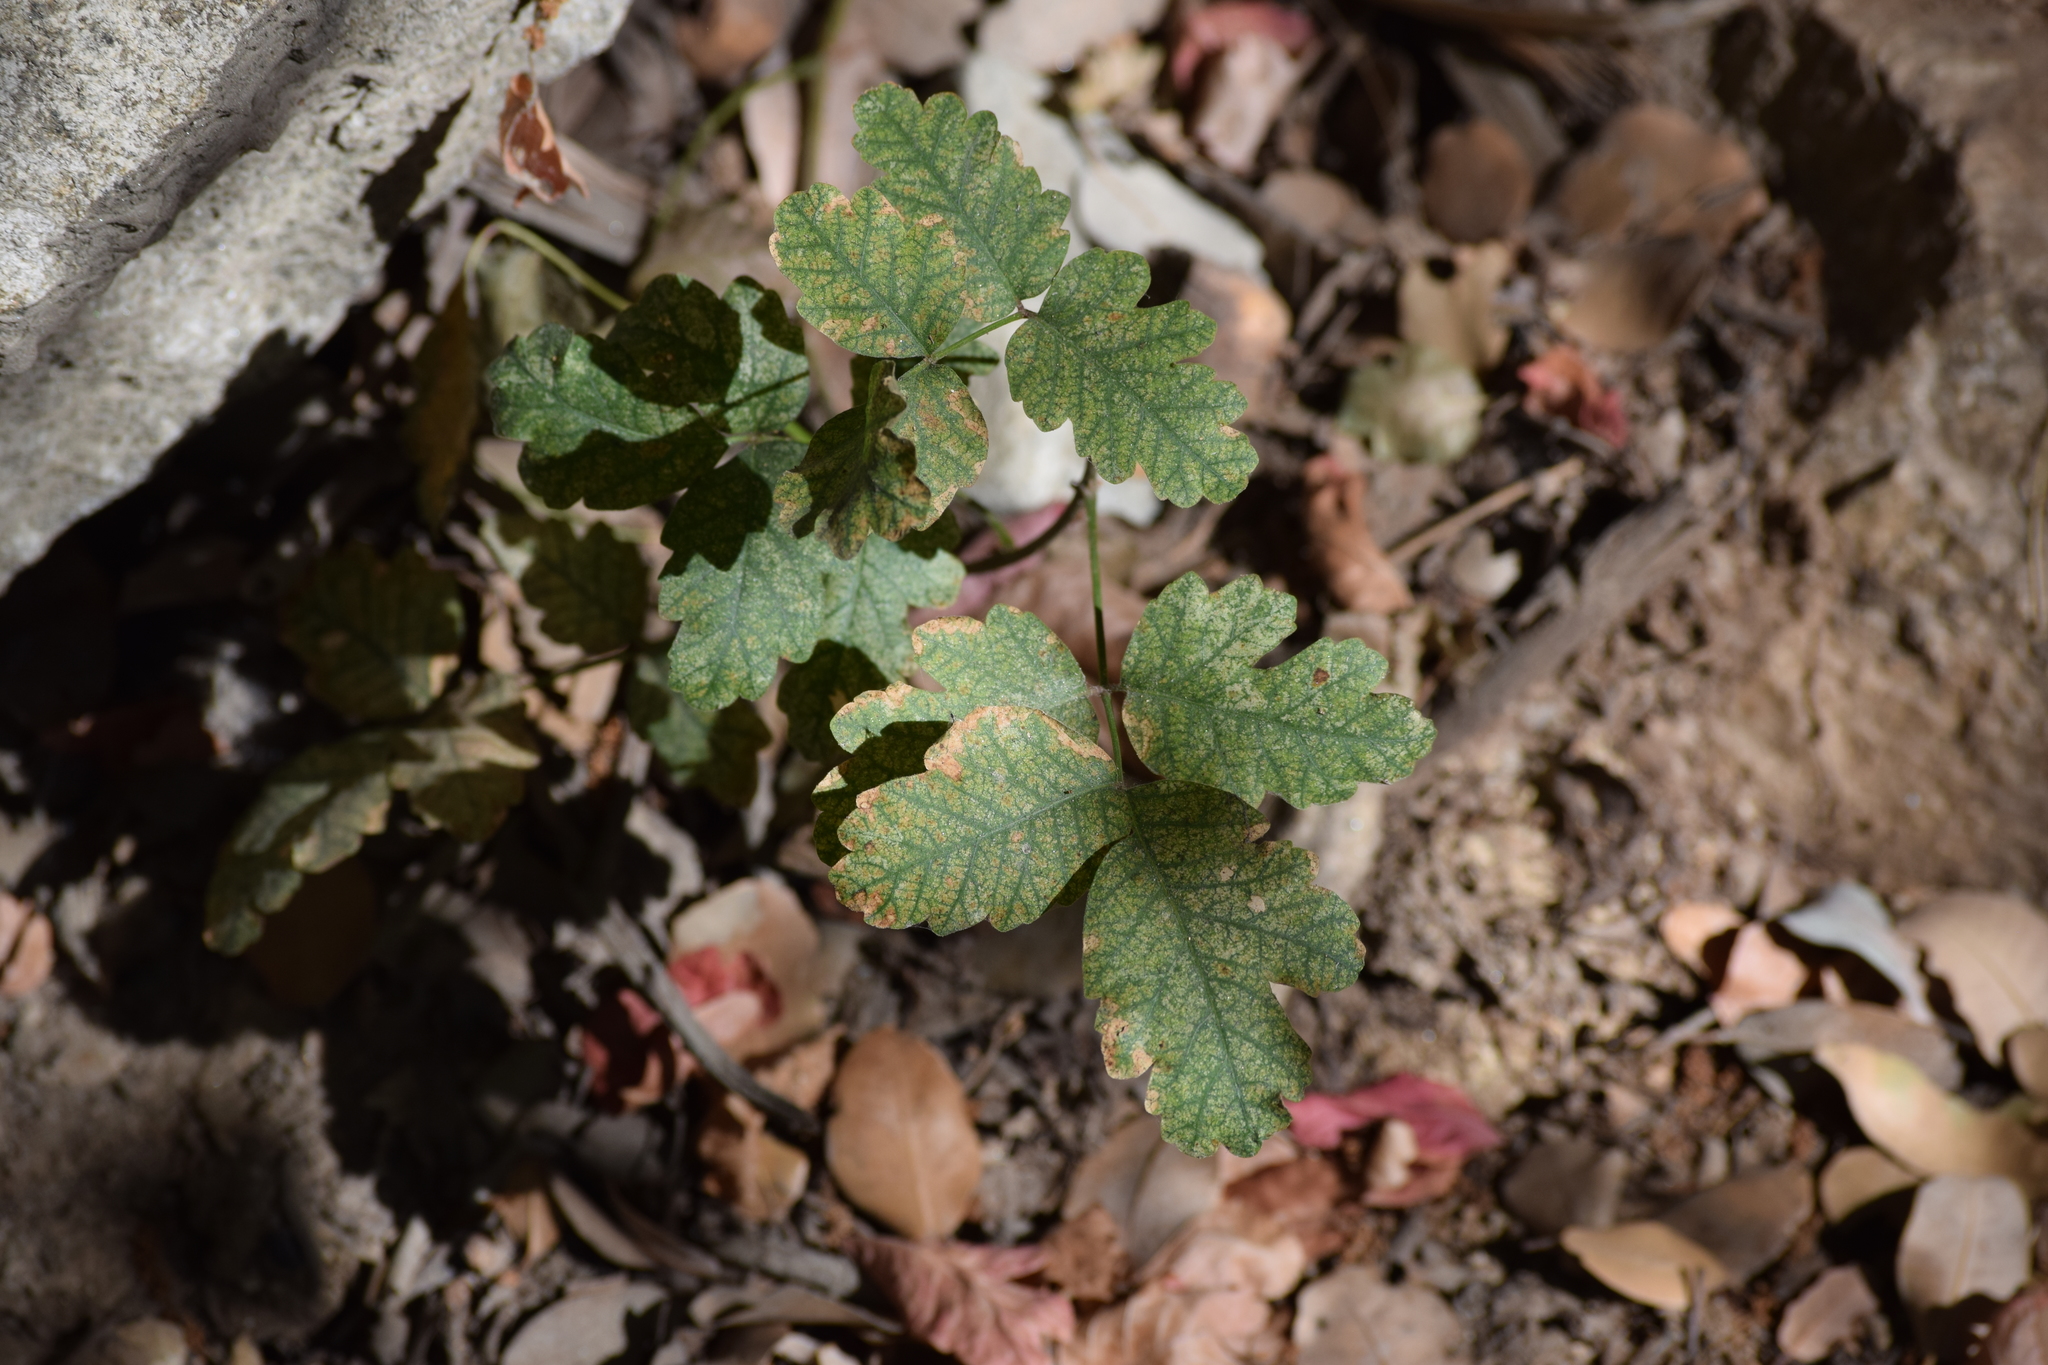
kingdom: Plantae
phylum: Tracheophyta
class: Magnoliopsida
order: Sapindales
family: Anacardiaceae
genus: Toxicodendron
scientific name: Toxicodendron diversilobum
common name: Pacific poison-oak
